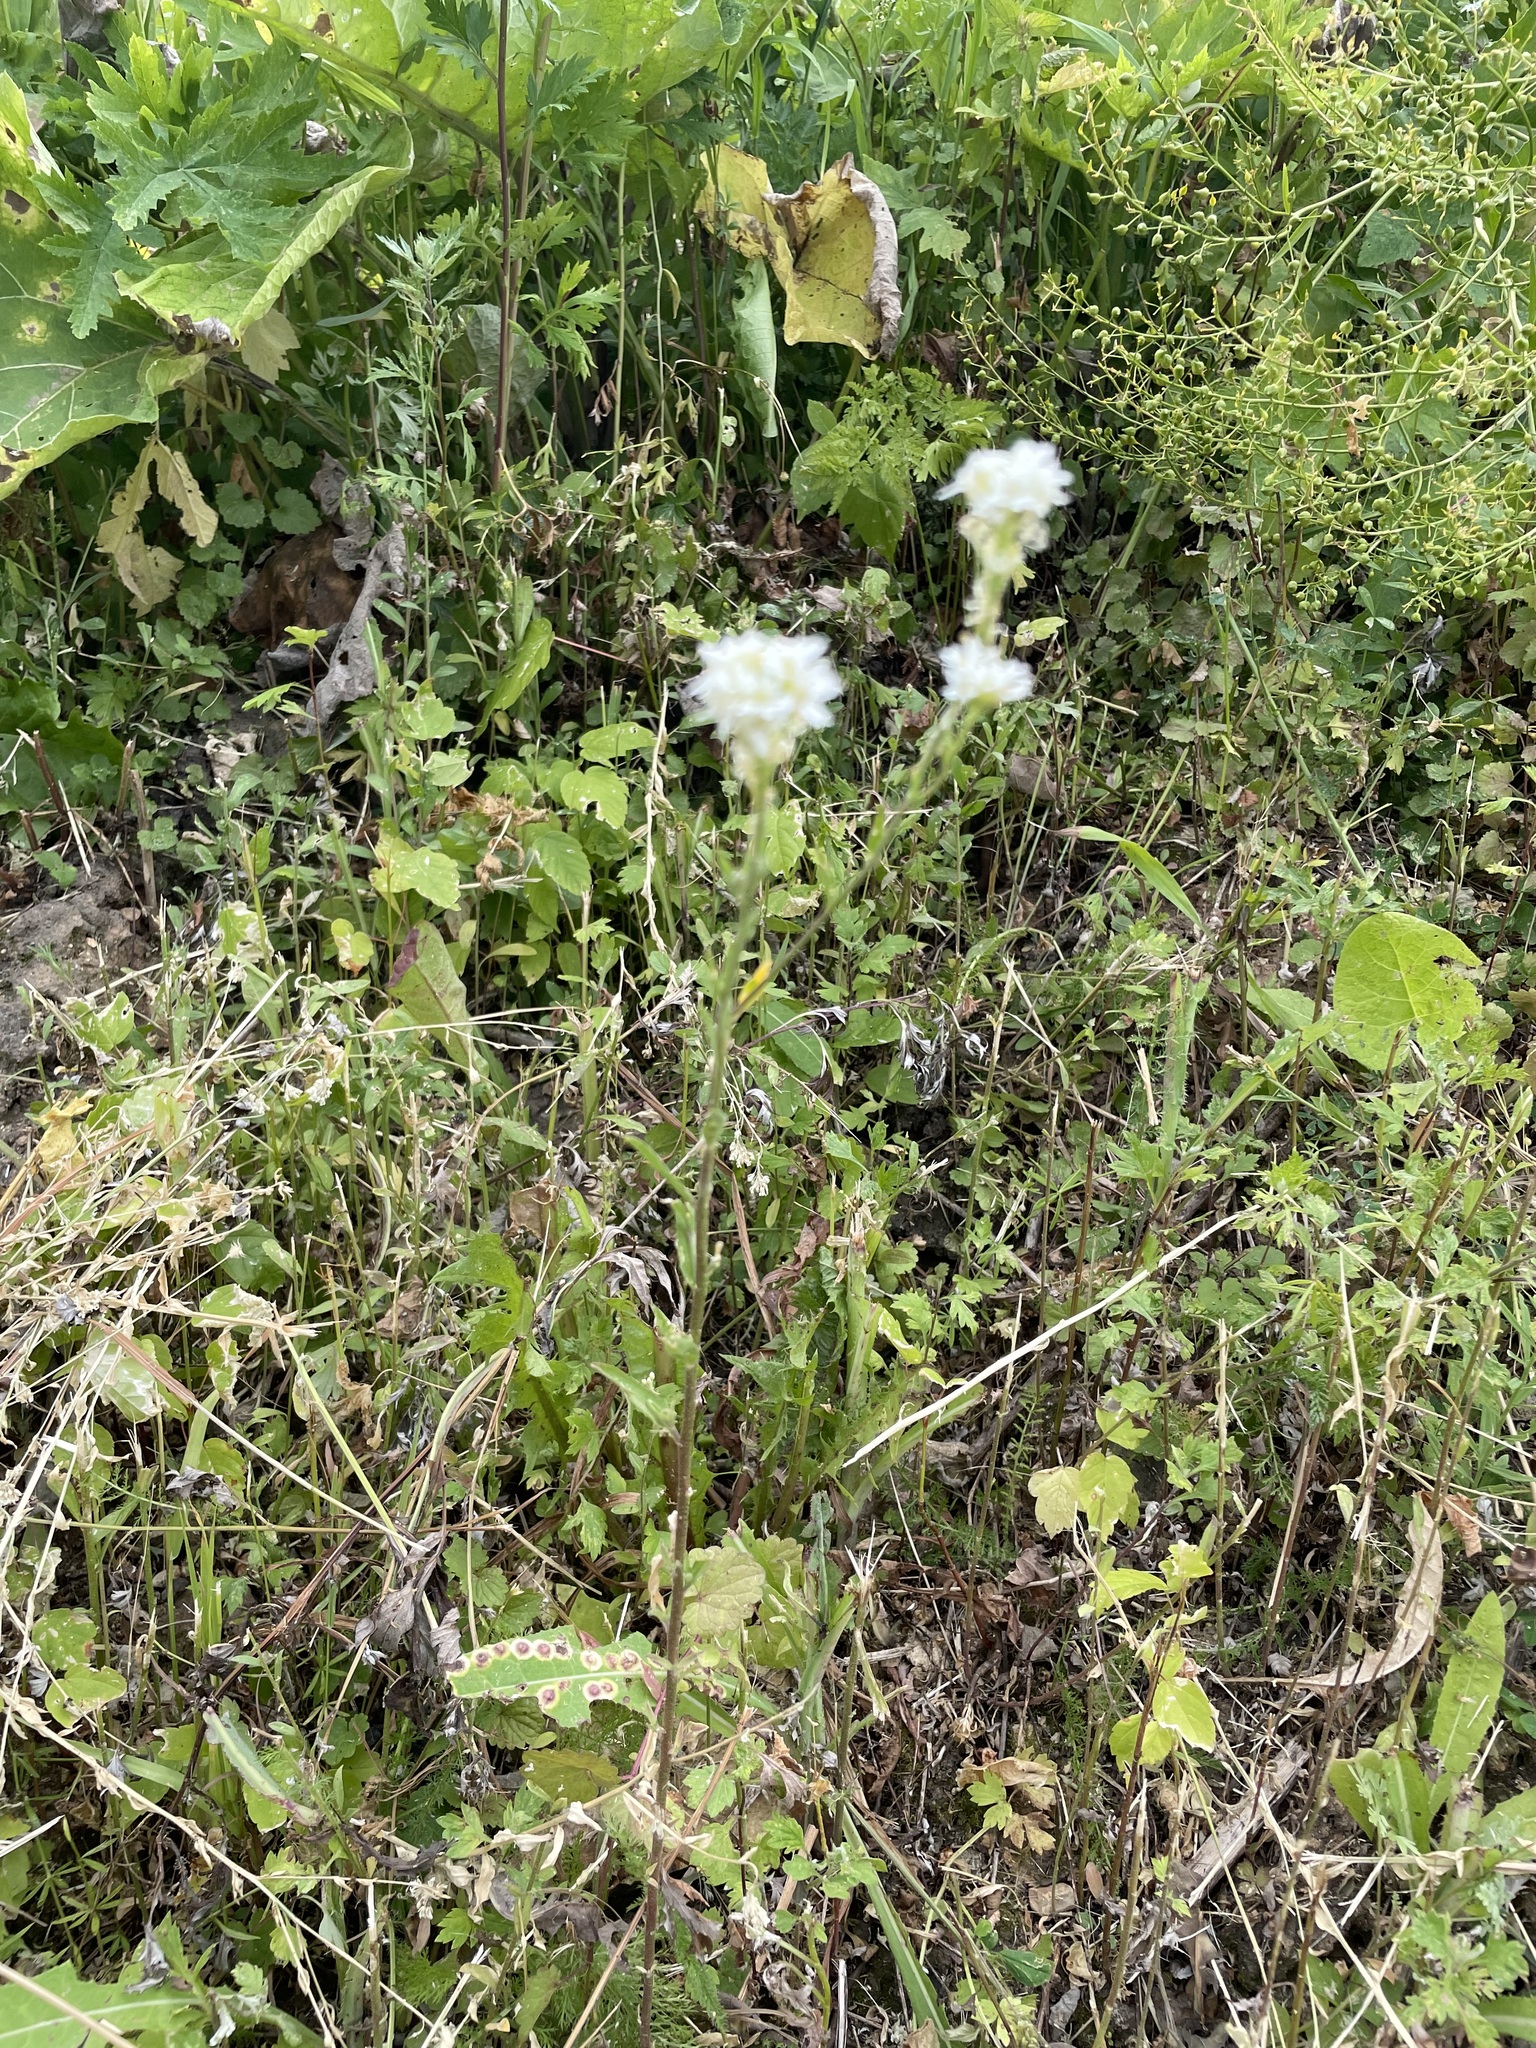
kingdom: Plantae
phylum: Tracheophyta
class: Magnoliopsida
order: Brassicales
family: Brassicaceae
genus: Berteroa
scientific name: Berteroa incana
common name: Hoary alison
